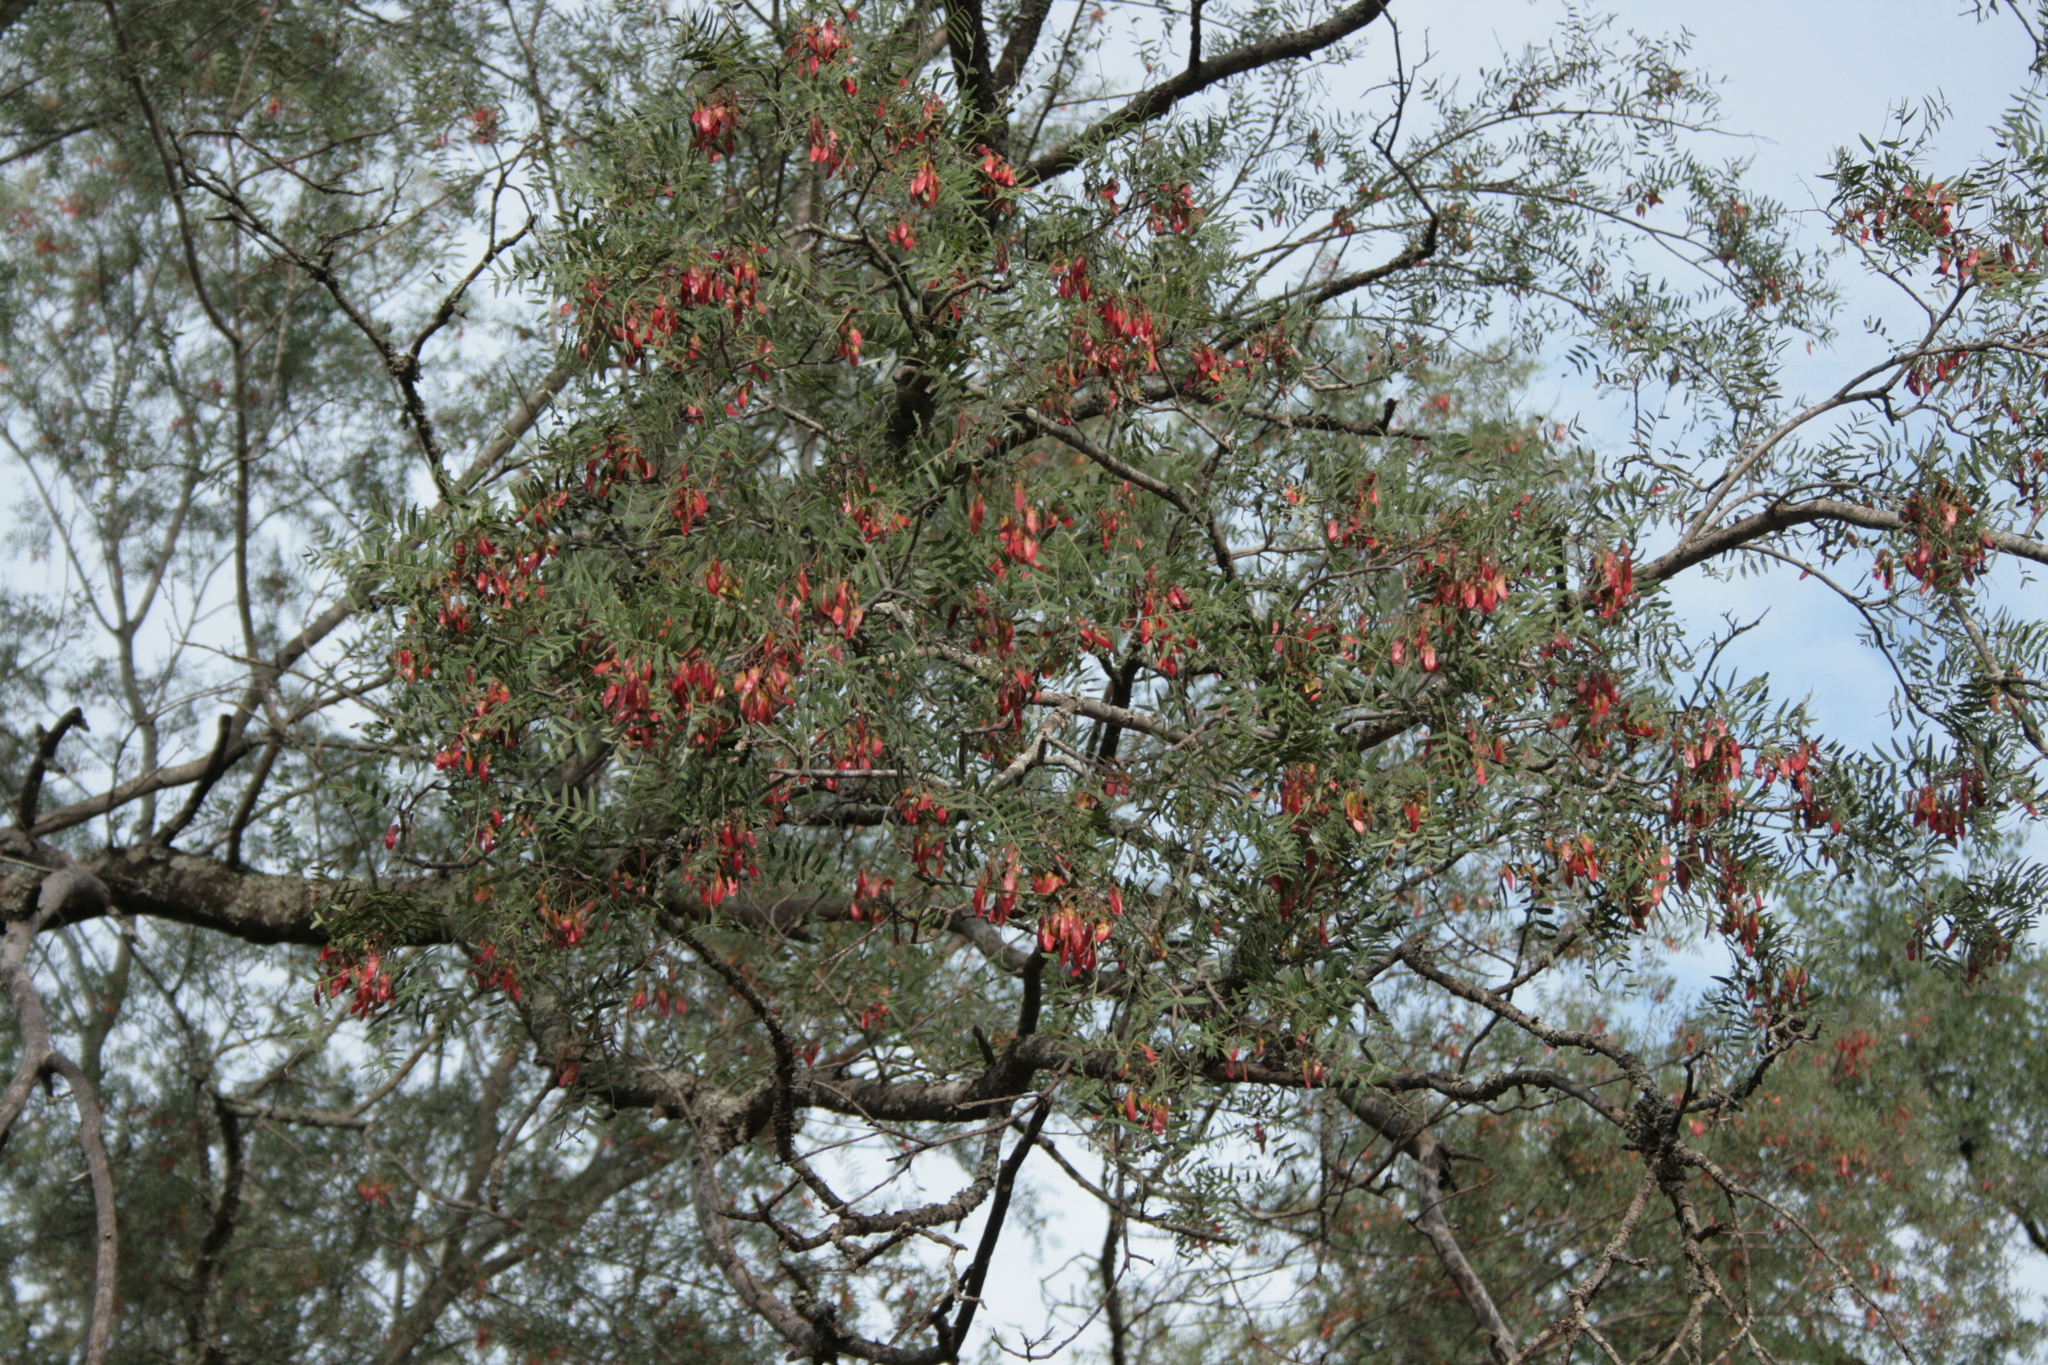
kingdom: Plantae
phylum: Tracheophyta
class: Magnoliopsida
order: Sapindales
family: Anacardiaceae
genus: Schinopsis
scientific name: Schinopsis lorentzii
